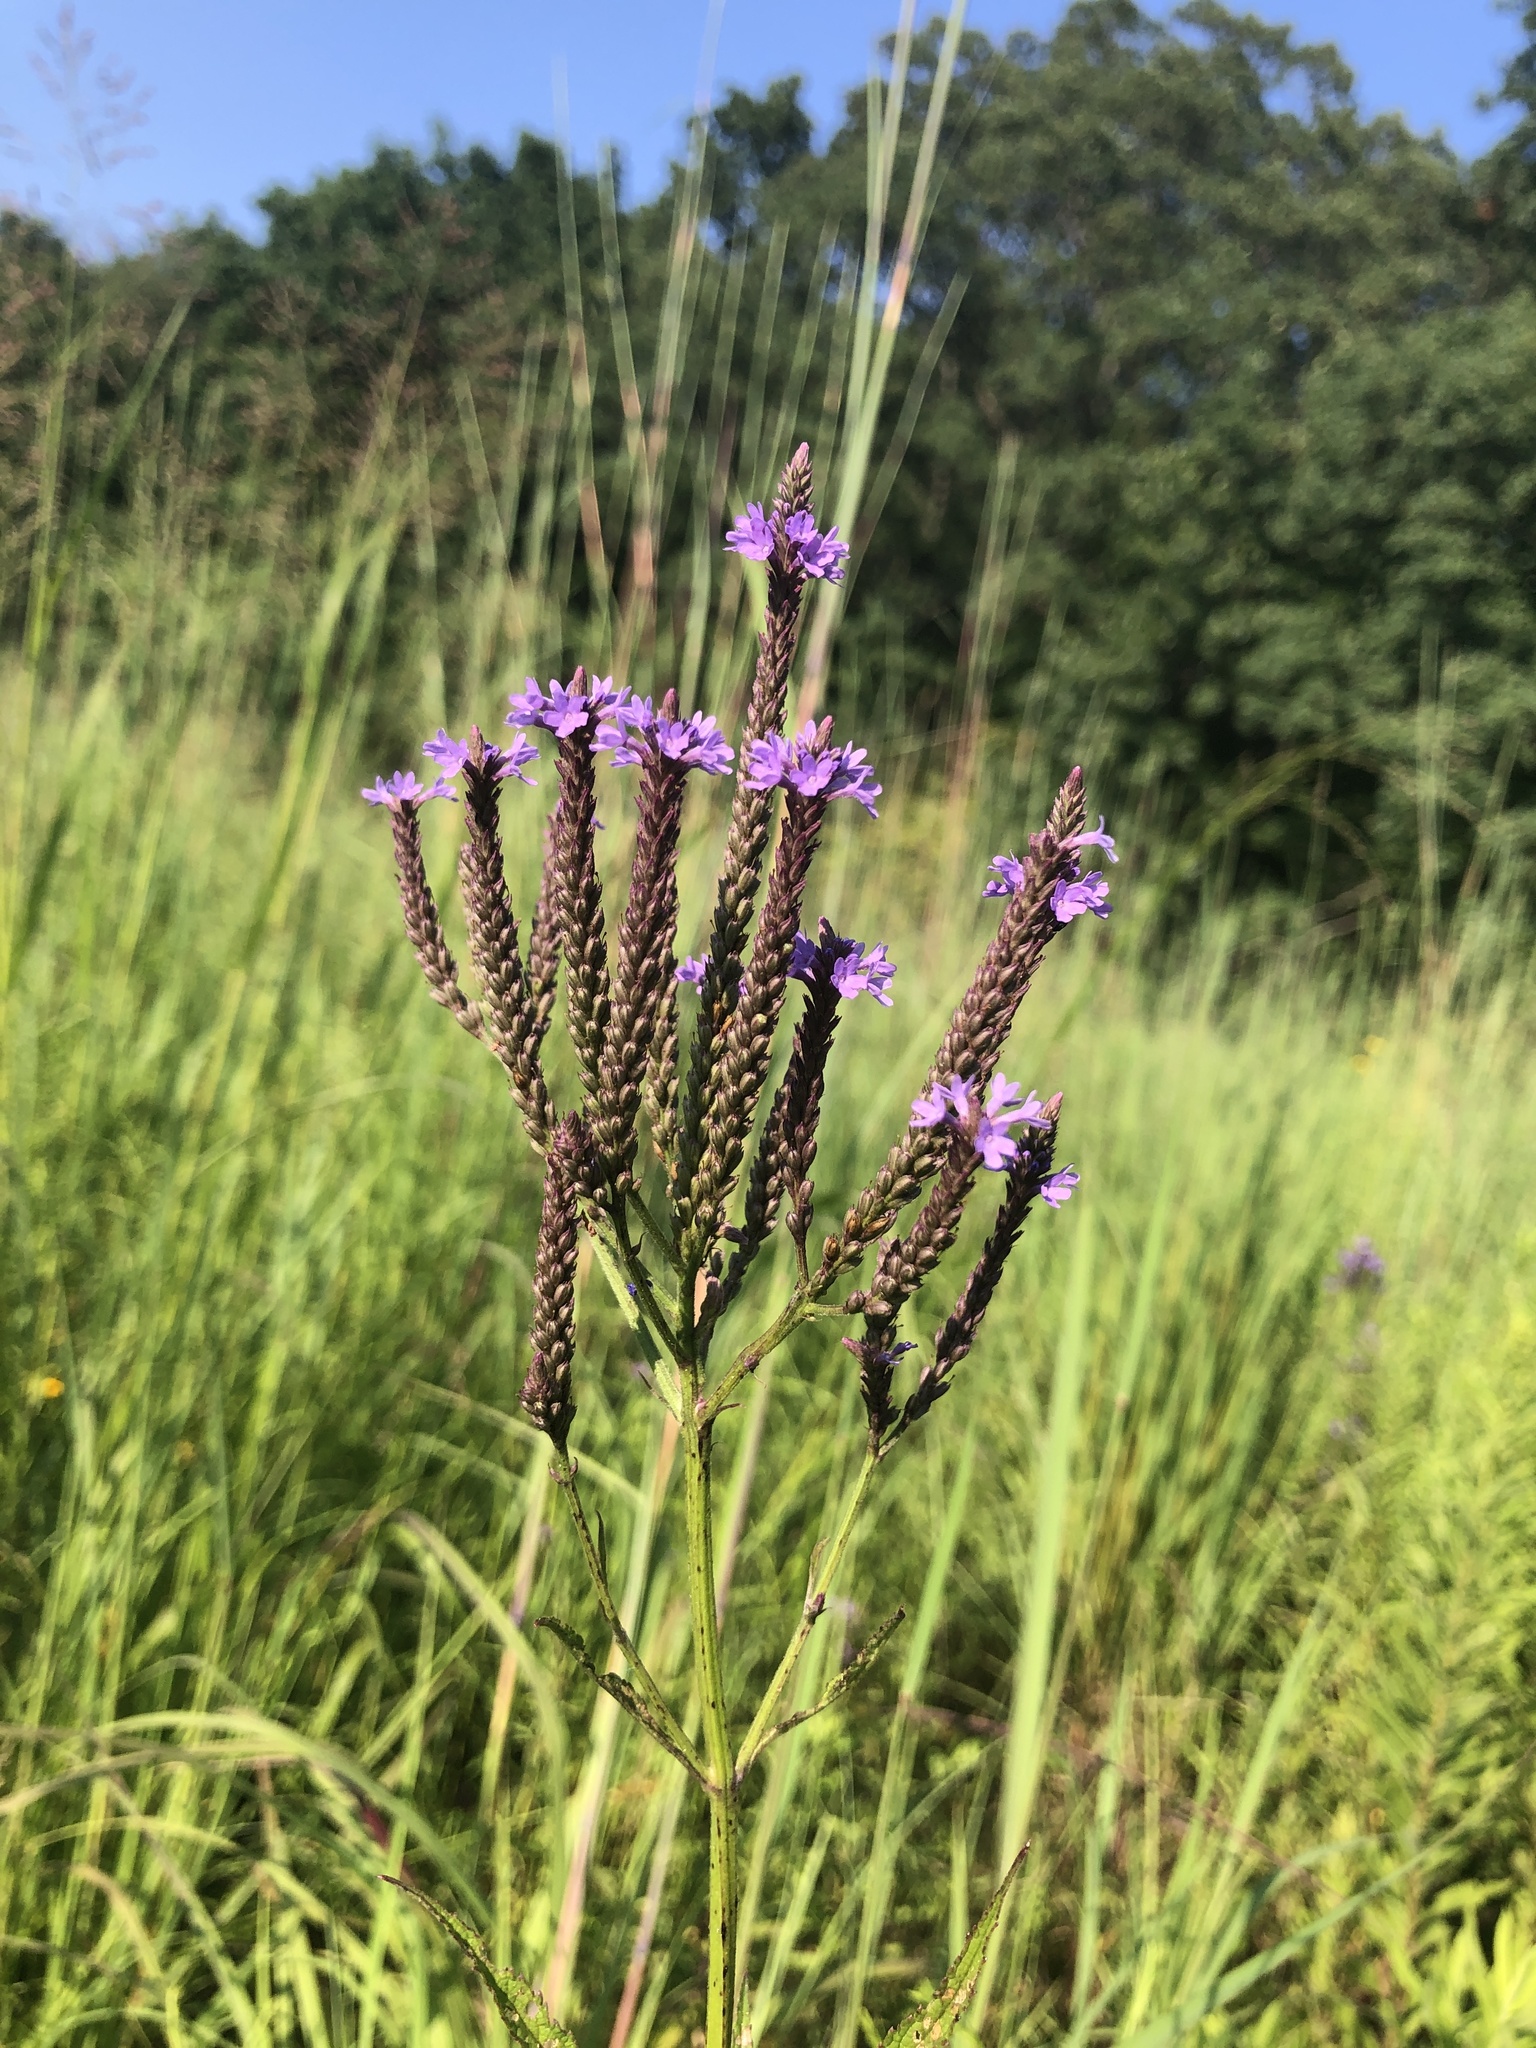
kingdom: Plantae
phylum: Tracheophyta
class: Magnoliopsida
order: Lamiales
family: Verbenaceae
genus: Verbena
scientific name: Verbena hastata
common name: American blue vervain
